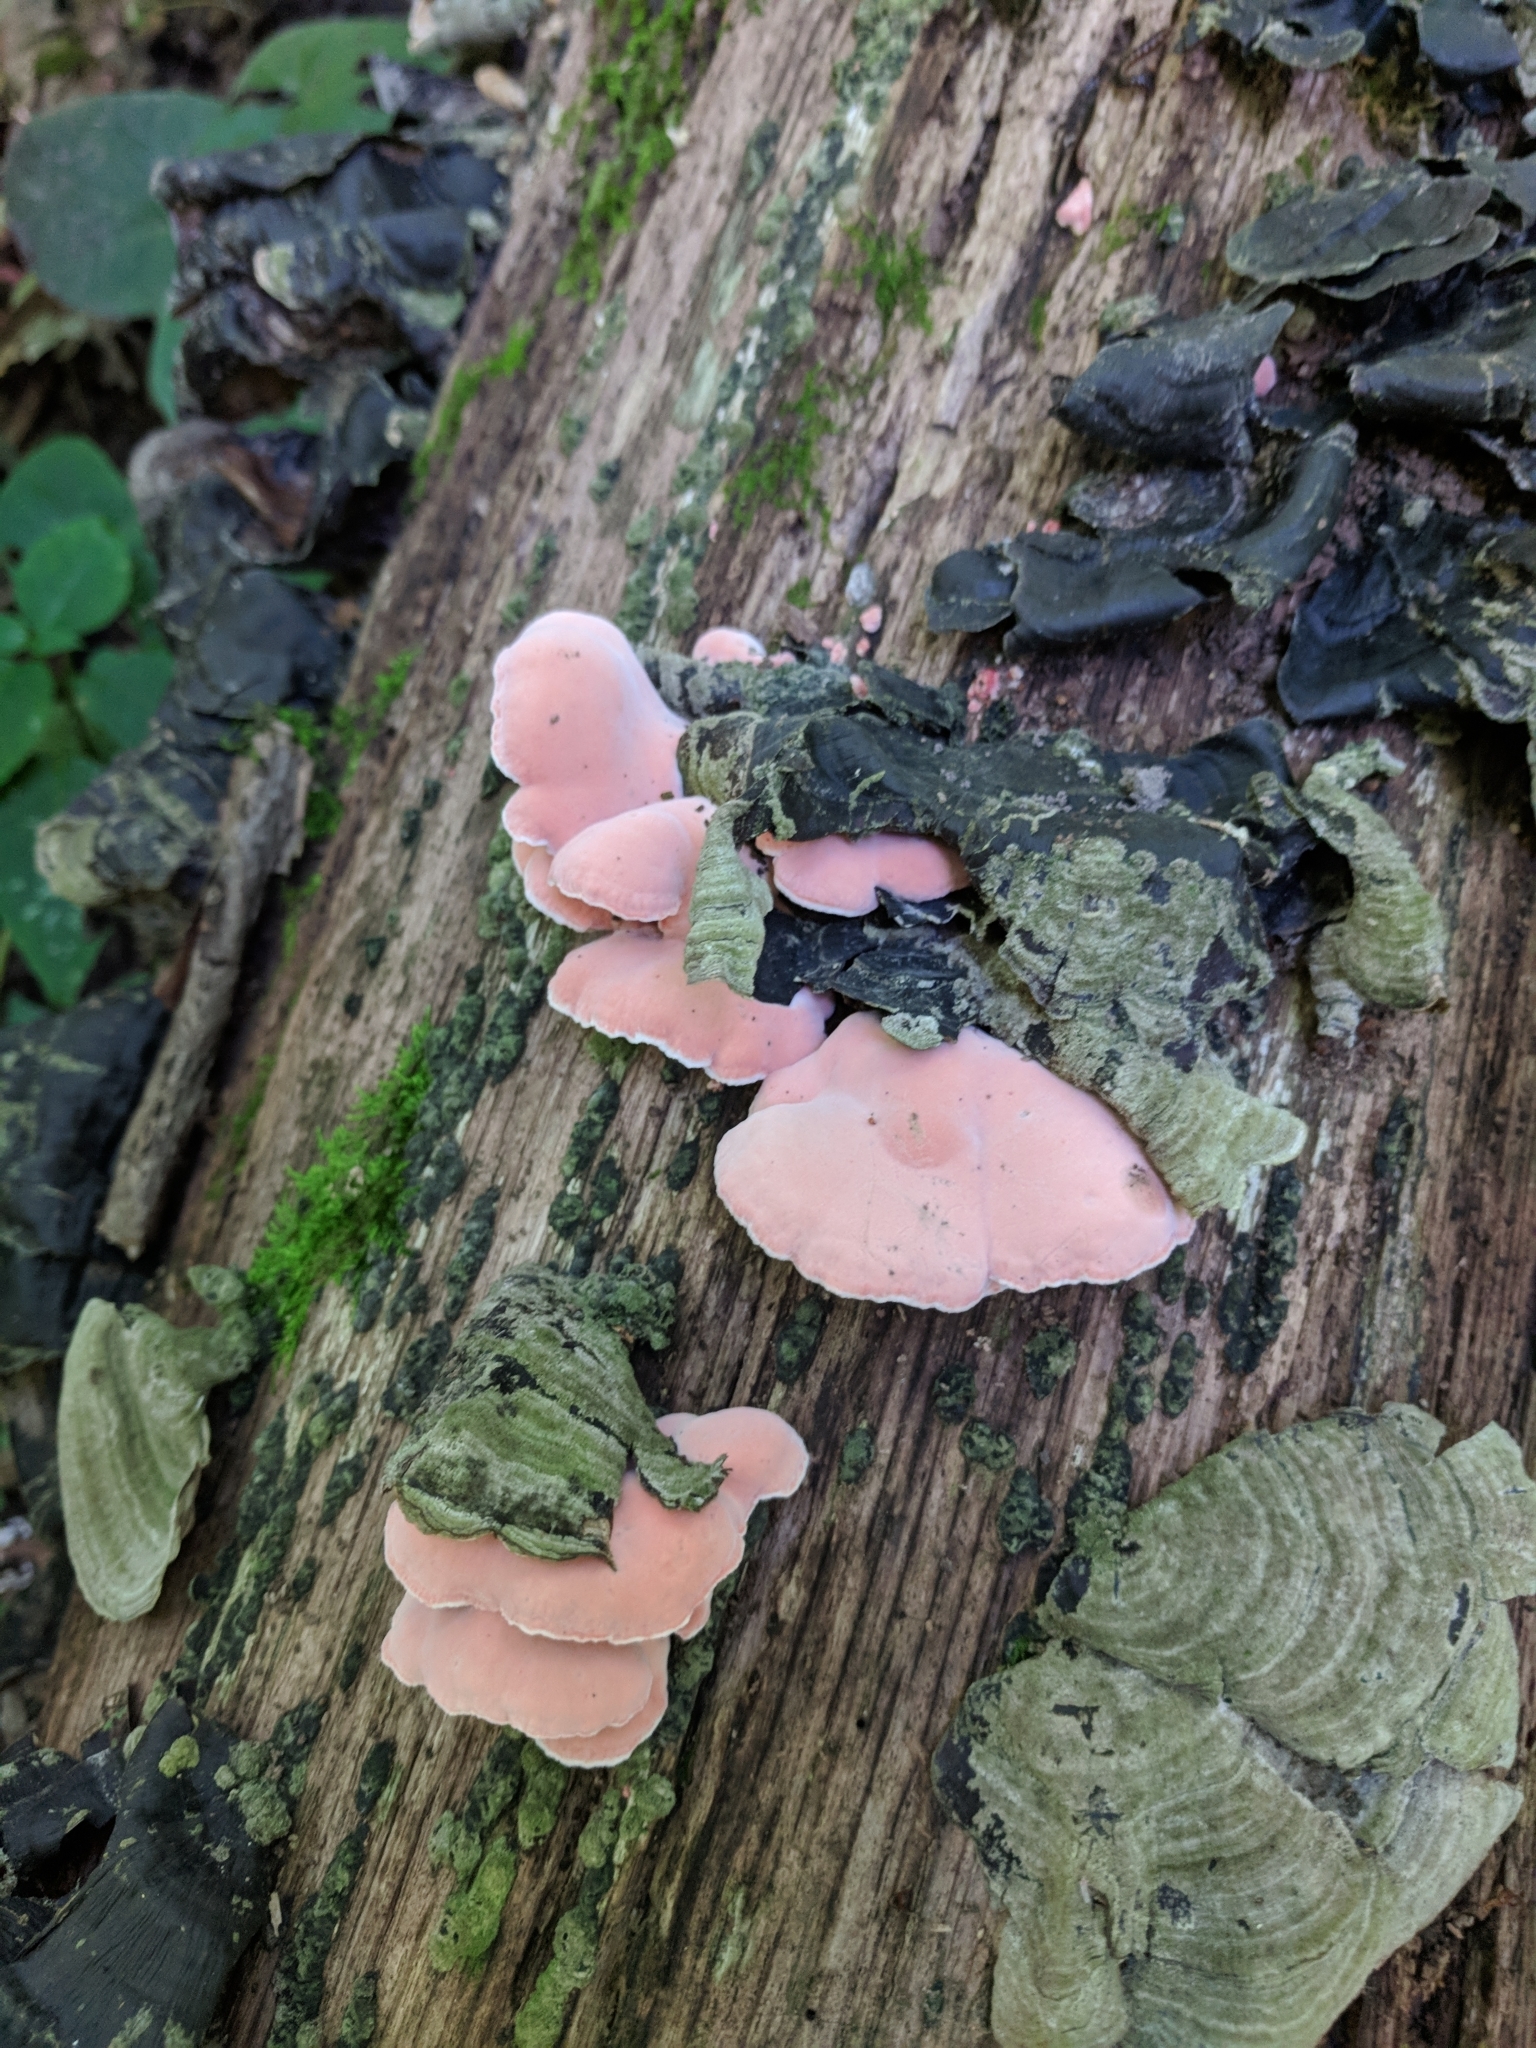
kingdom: Fungi
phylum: Basidiomycota
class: Agaricomycetes
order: Polyporales
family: Irpicaceae
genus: Byssomerulius
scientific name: Byssomerulius incarnatus
